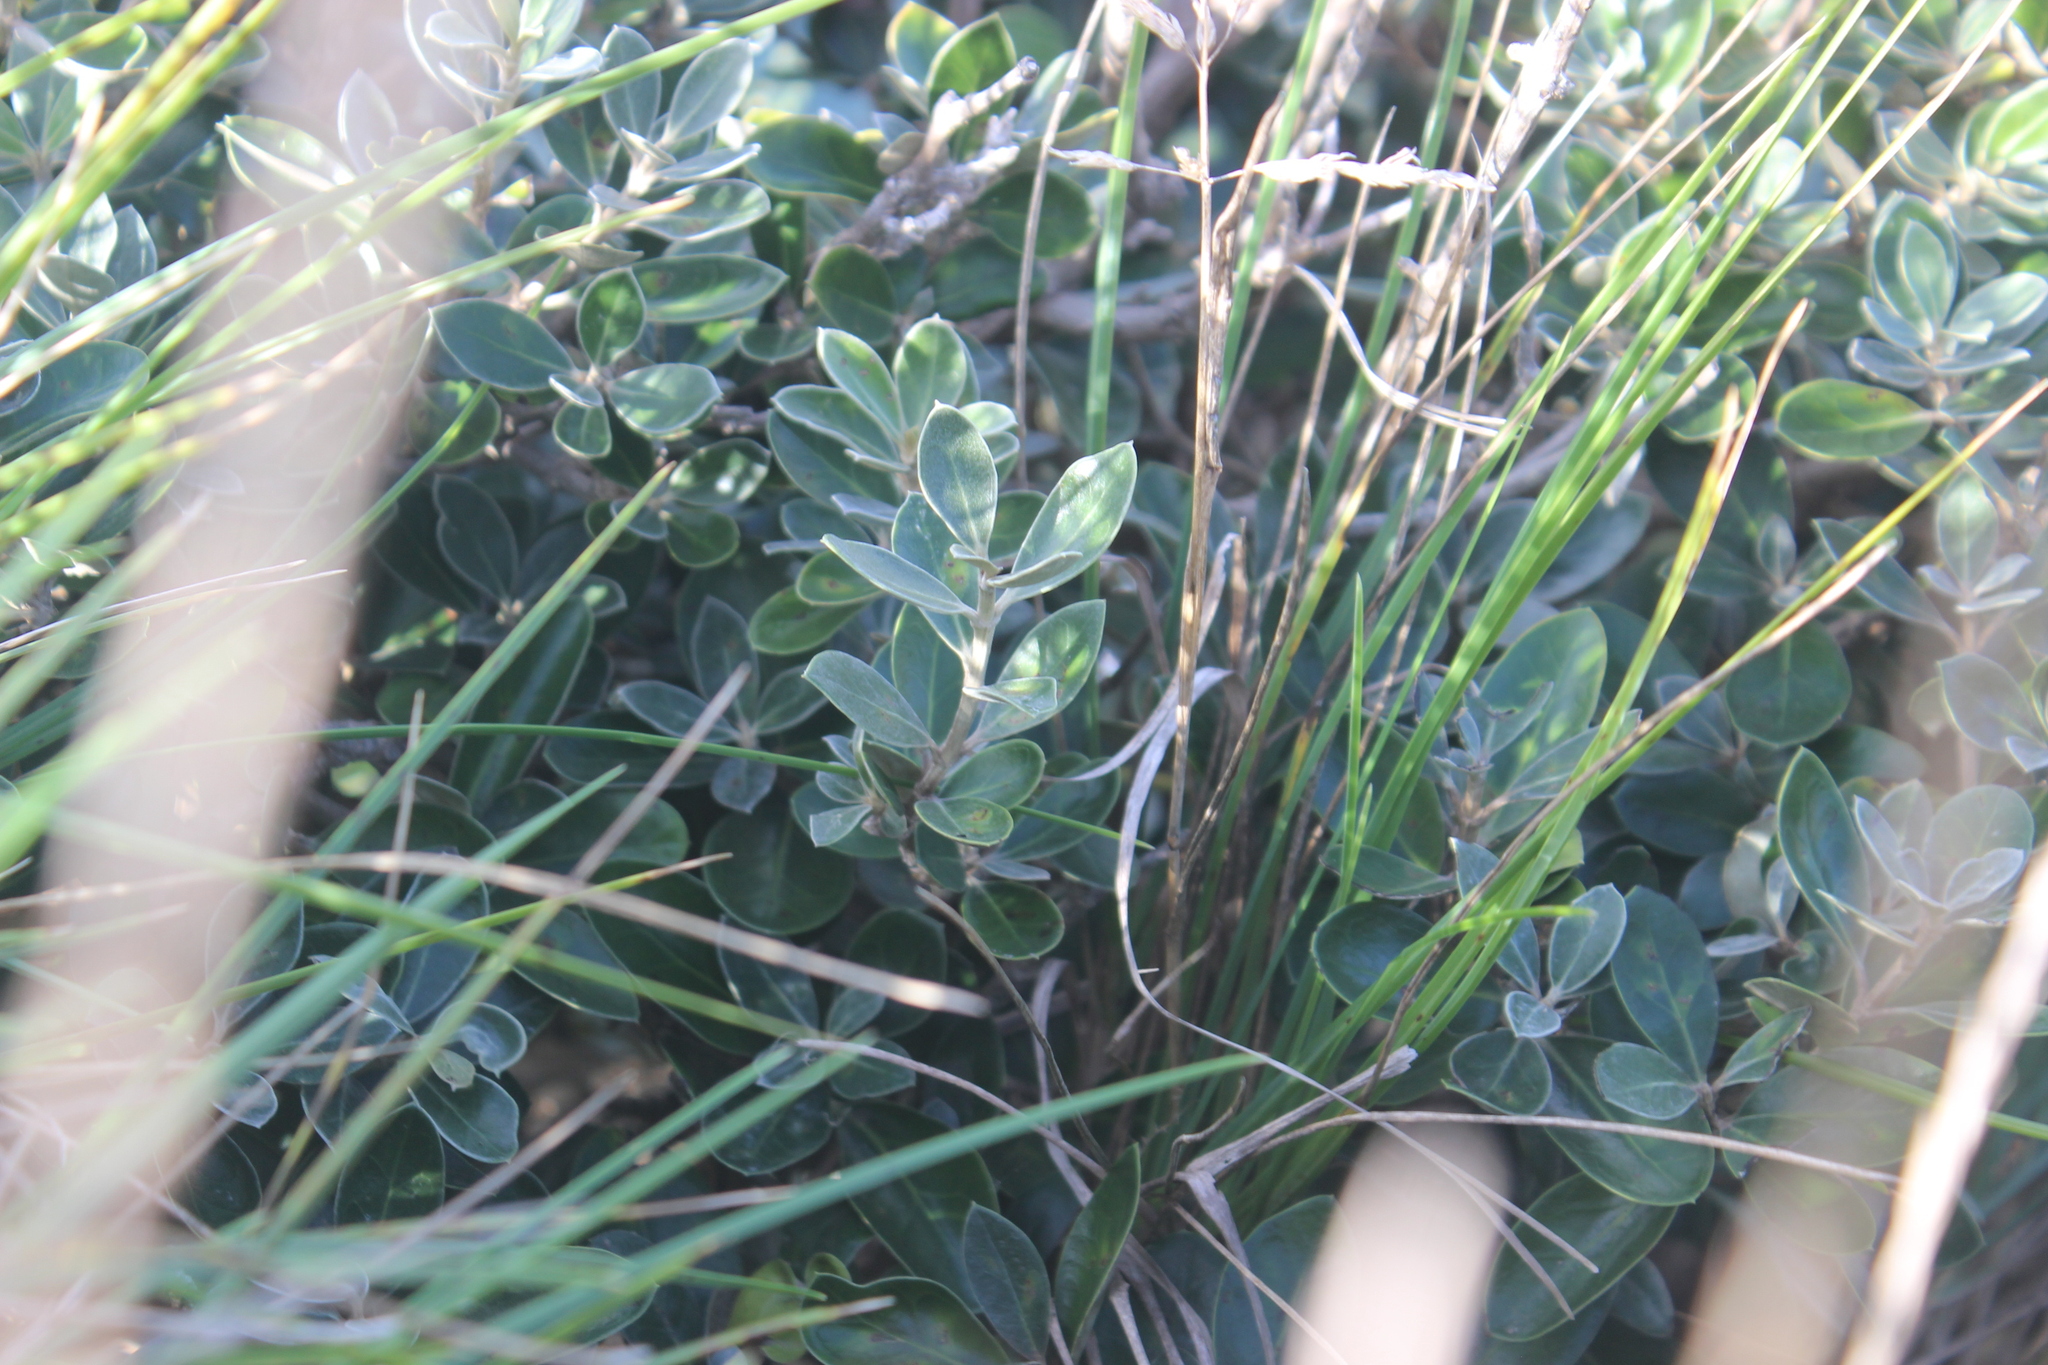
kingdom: Plantae
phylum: Tracheophyta
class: Magnoliopsida
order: Asterales
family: Asteraceae
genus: Olearia
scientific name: Olearia traversiorum
